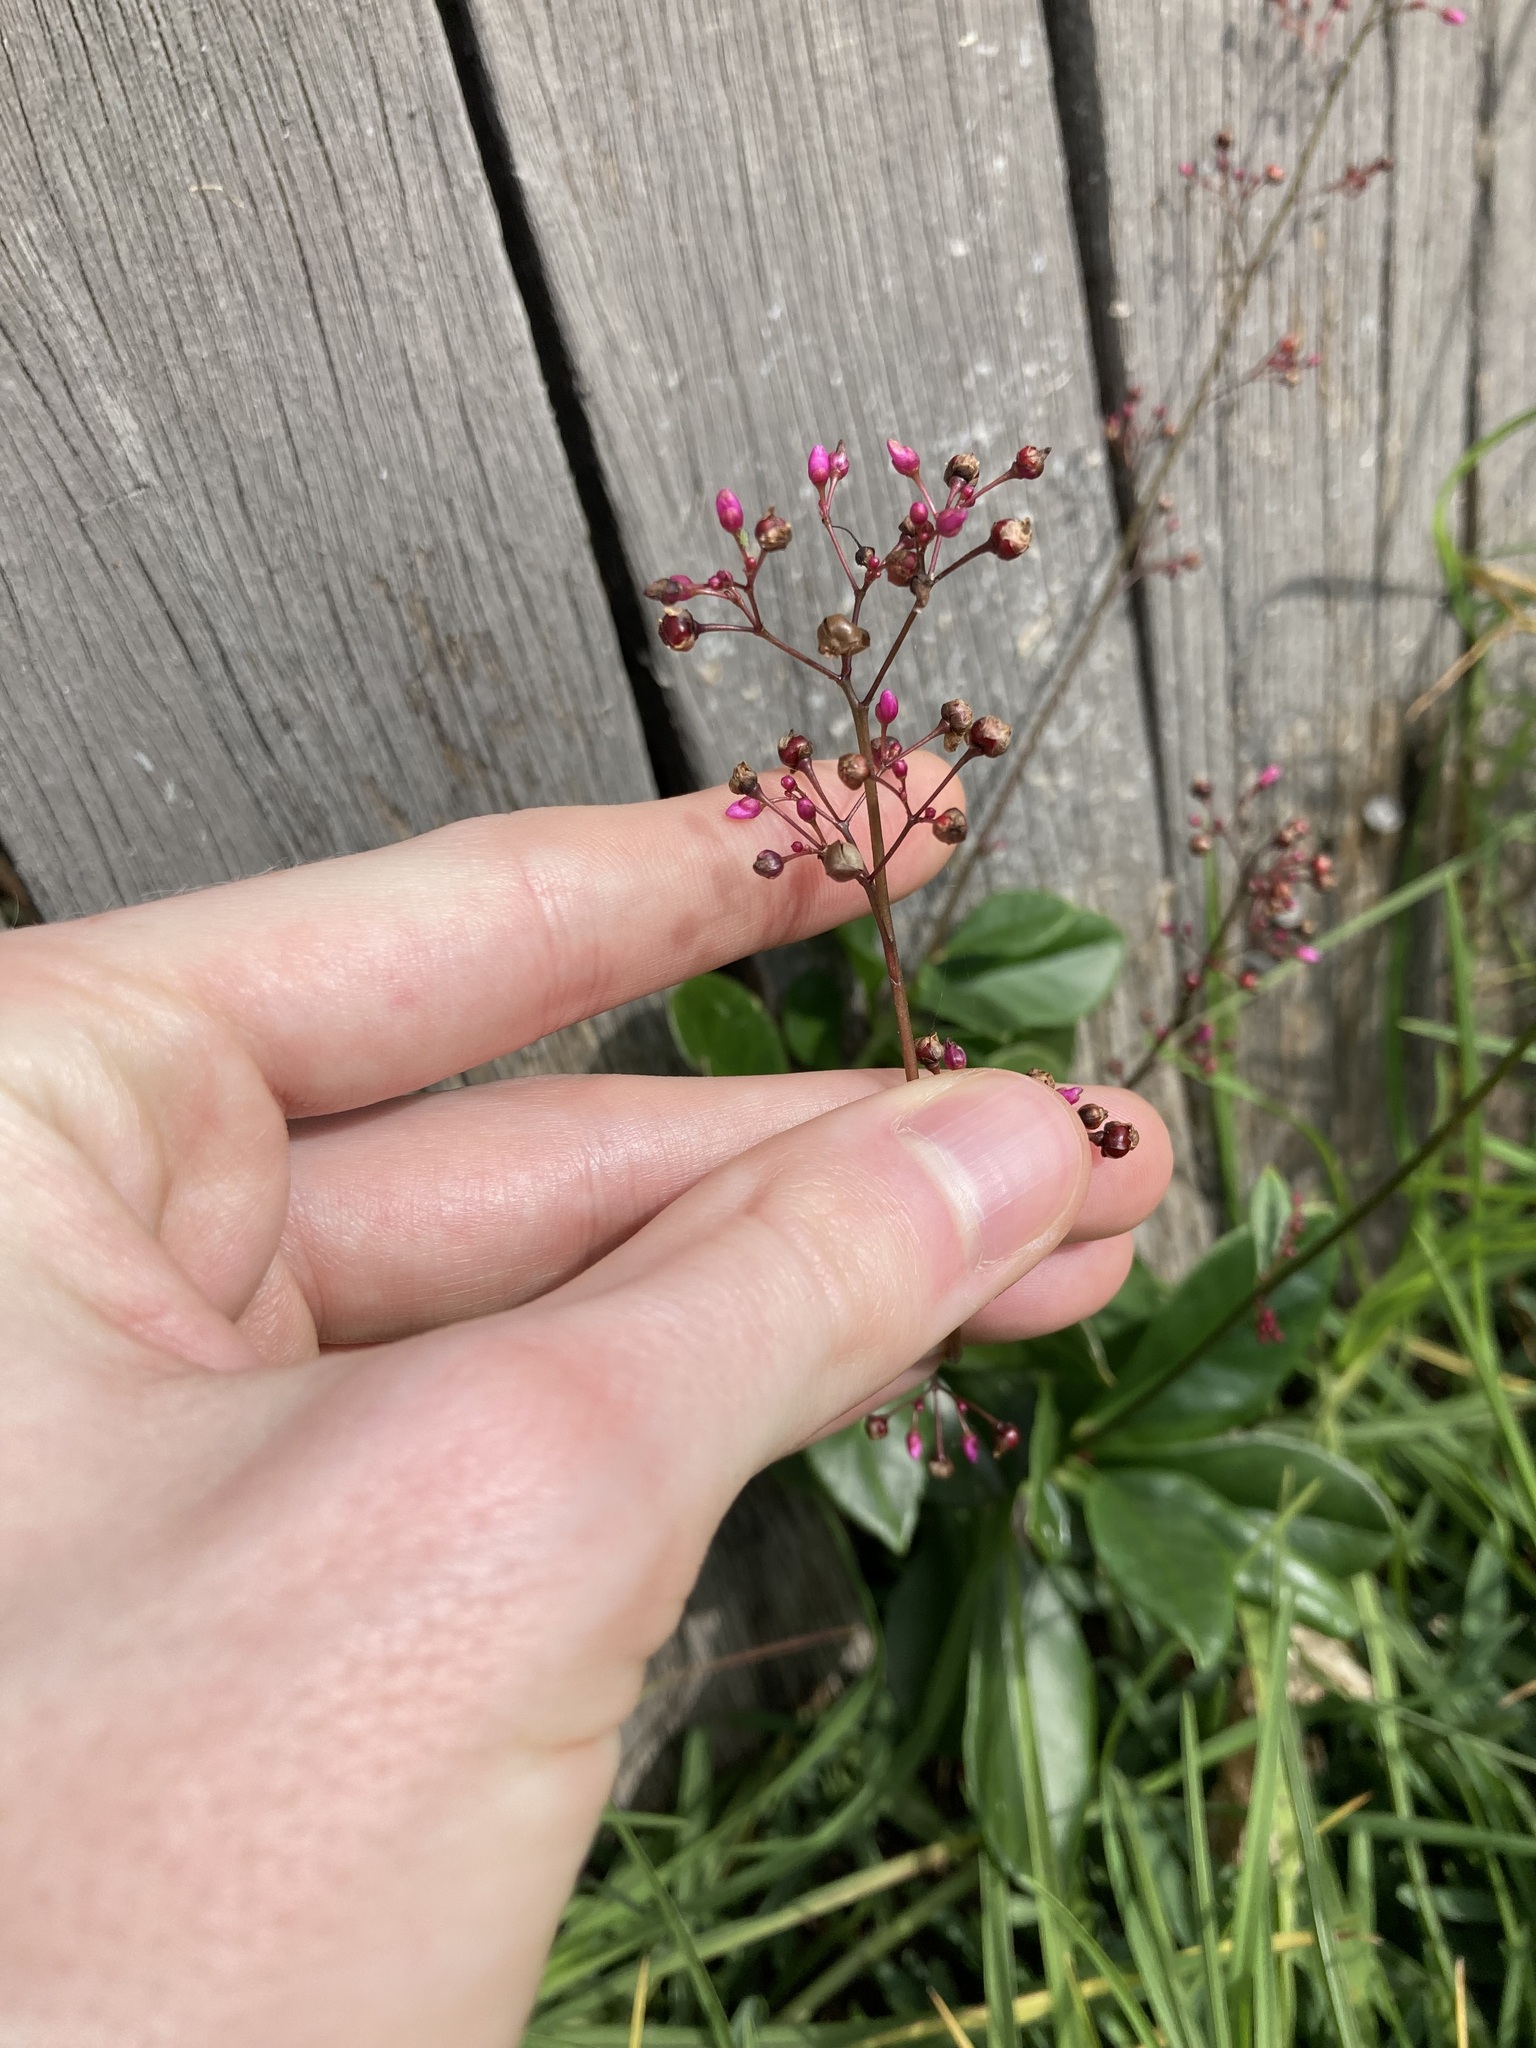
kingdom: Plantae
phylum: Tracheophyta
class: Magnoliopsida
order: Caryophyllales
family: Talinaceae
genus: Talinum
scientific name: Talinum paniculatum
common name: Jewels of opar
